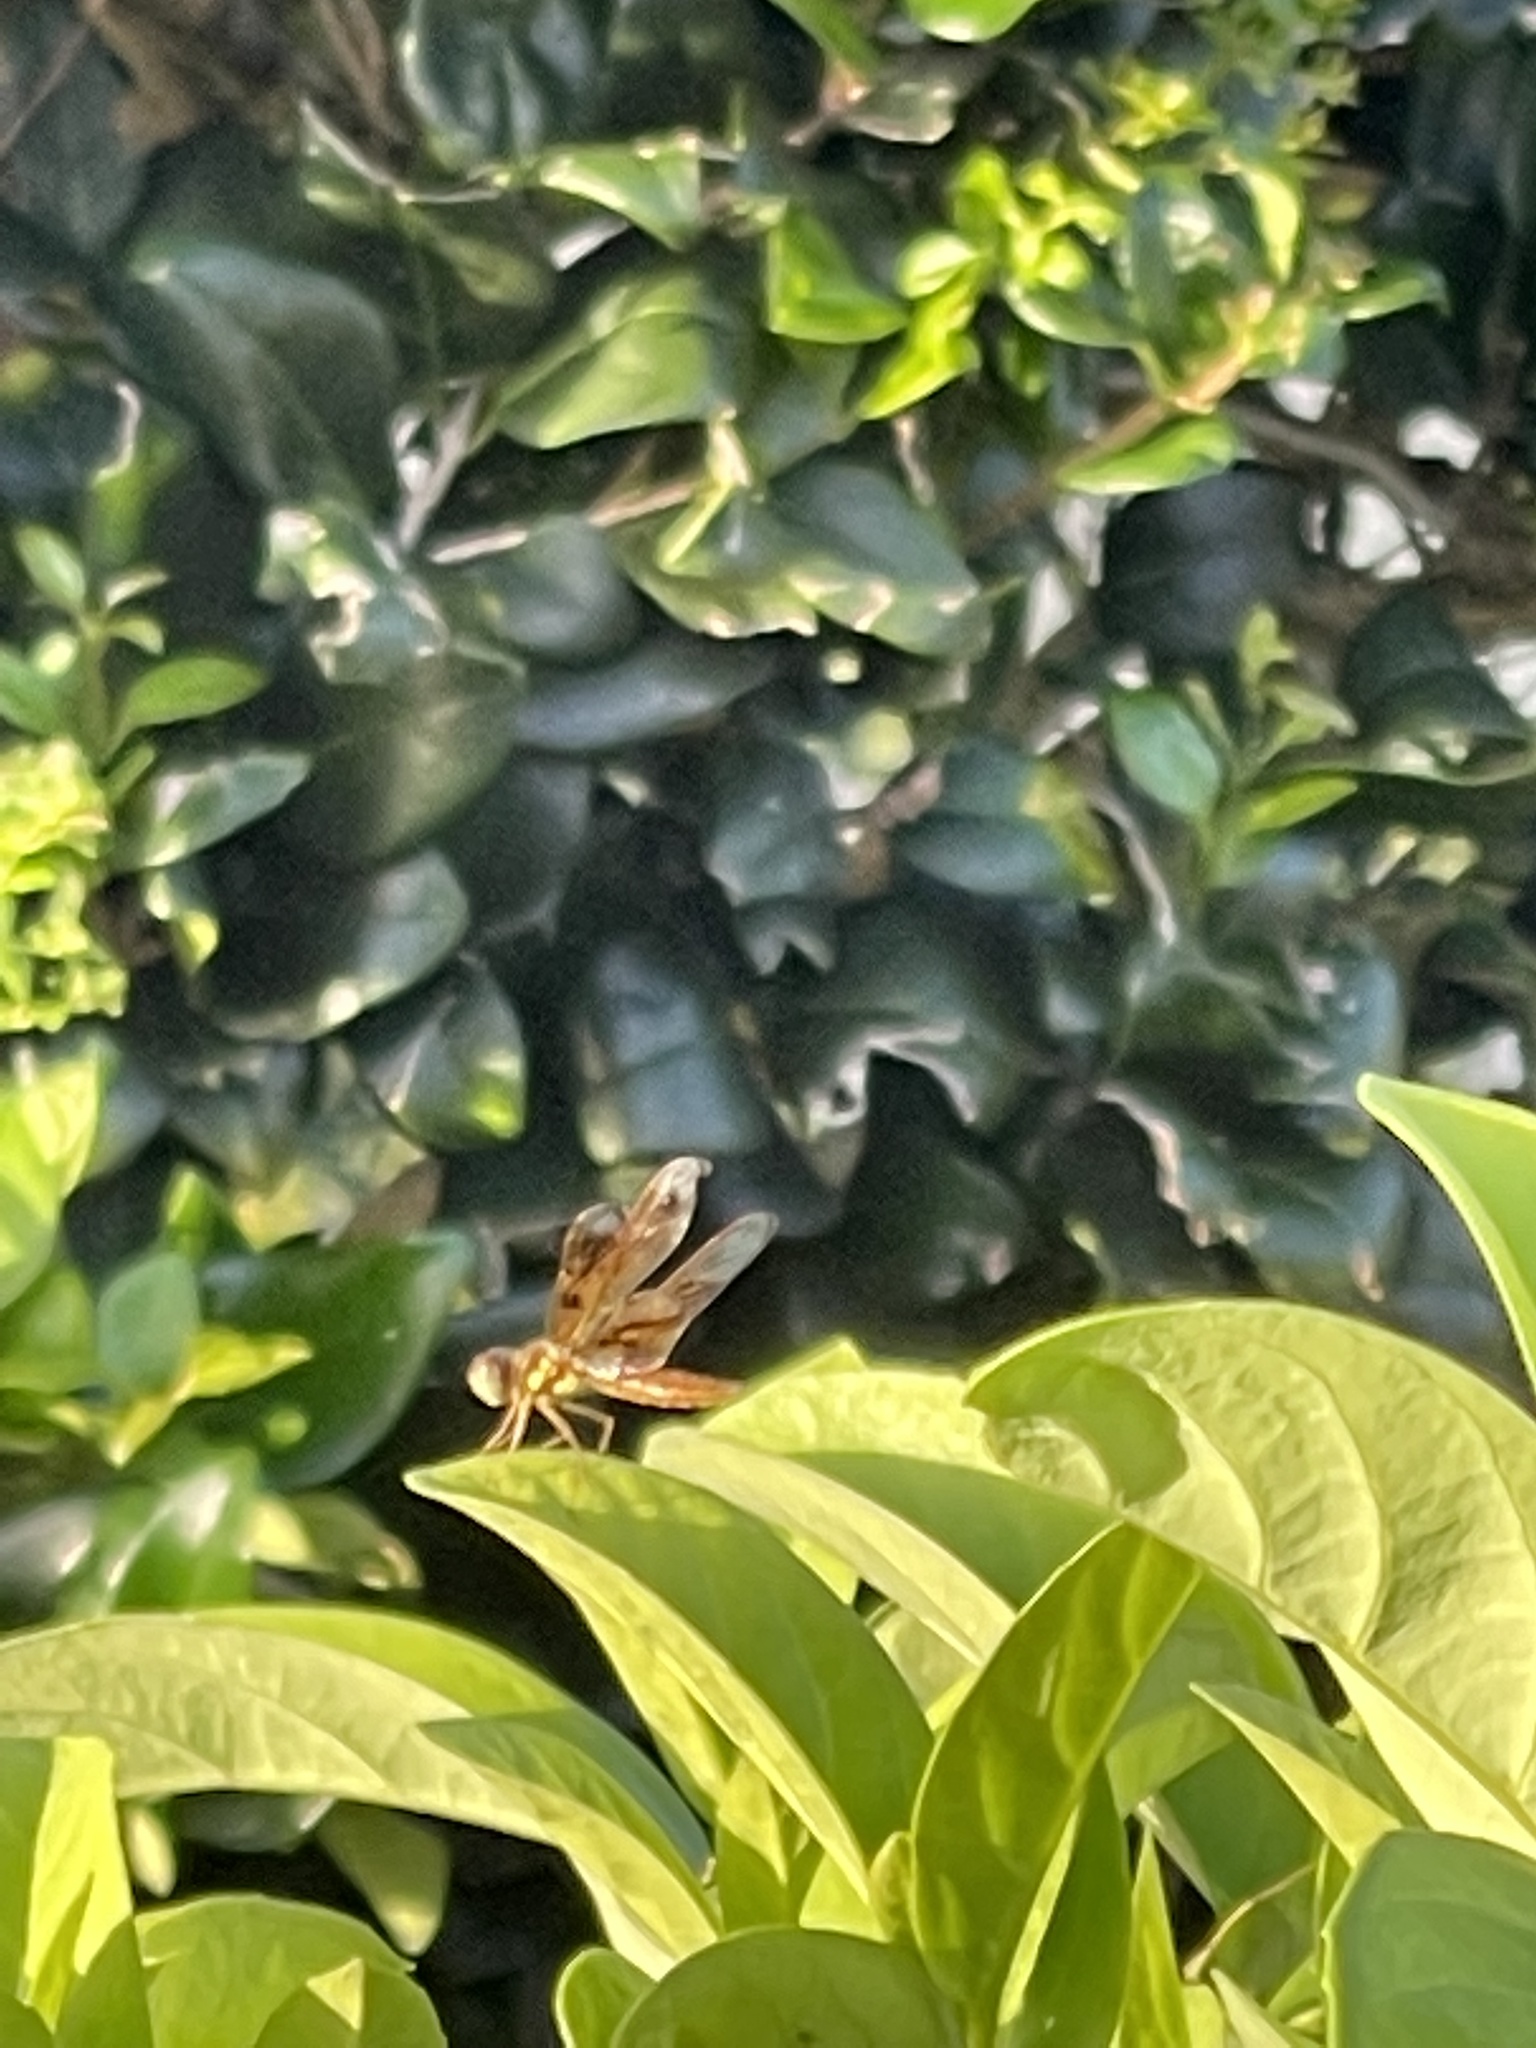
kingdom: Animalia
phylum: Arthropoda
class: Insecta
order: Odonata
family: Libellulidae
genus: Perithemis
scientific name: Perithemis tenera
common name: Eastern amberwing
